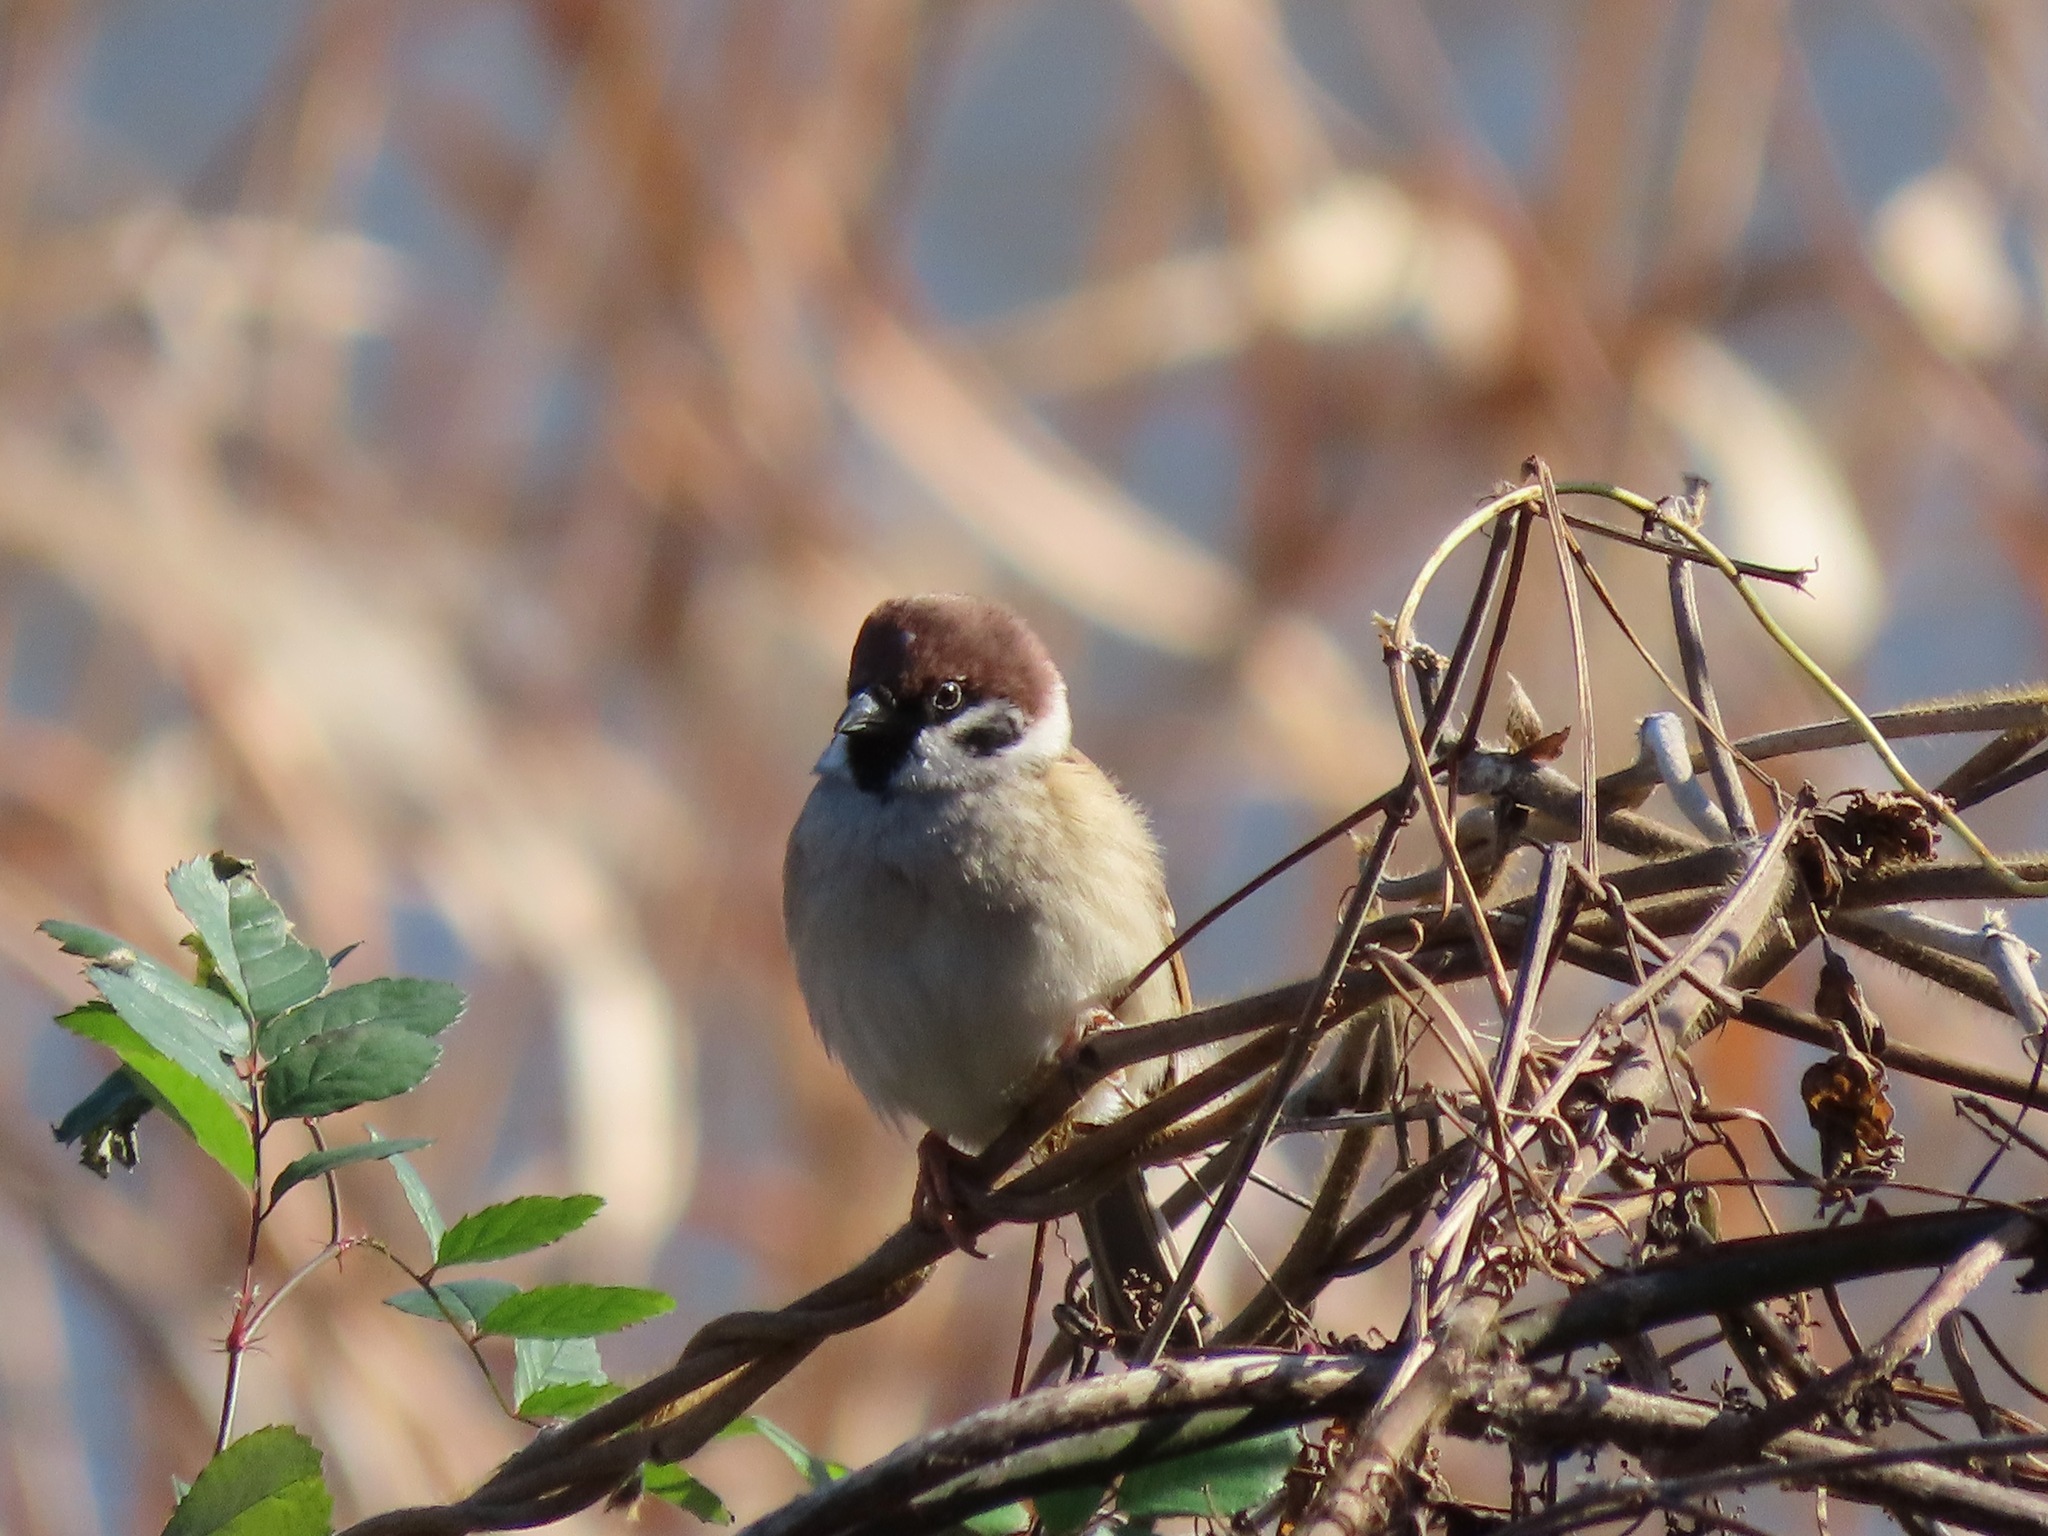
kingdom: Animalia
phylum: Chordata
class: Aves
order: Passeriformes
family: Passeridae
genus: Passer
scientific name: Passer montanus
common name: Eurasian tree sparrow
